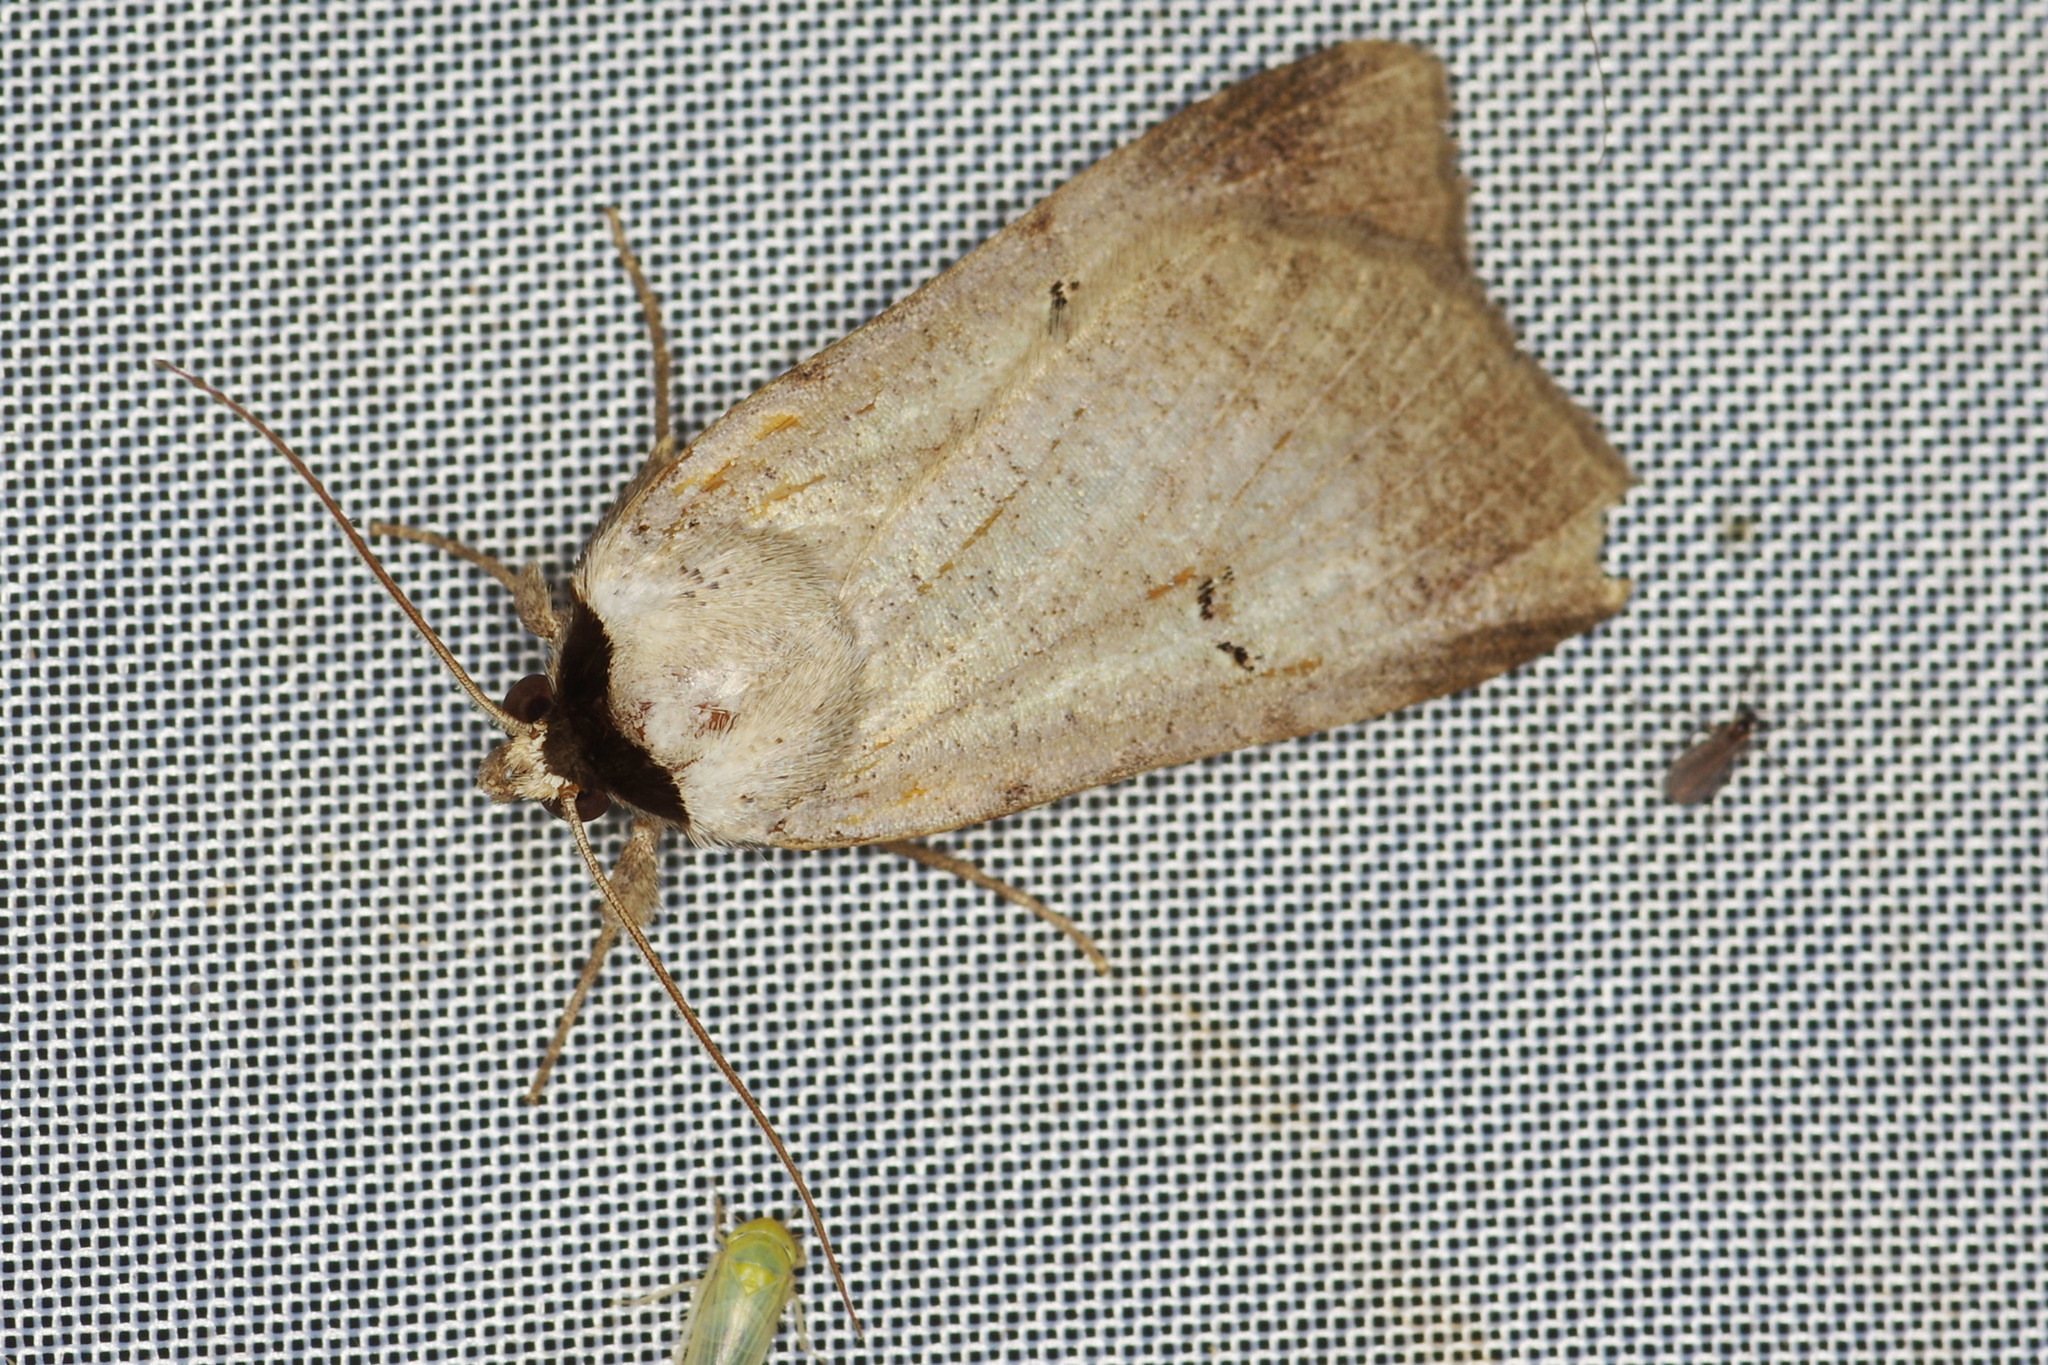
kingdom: Animalia
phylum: Arthropoda
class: Insecta
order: Lepidoptera
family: Erebidae
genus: Lygephila
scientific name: Lygephila craccae
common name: Scarce blackneck
